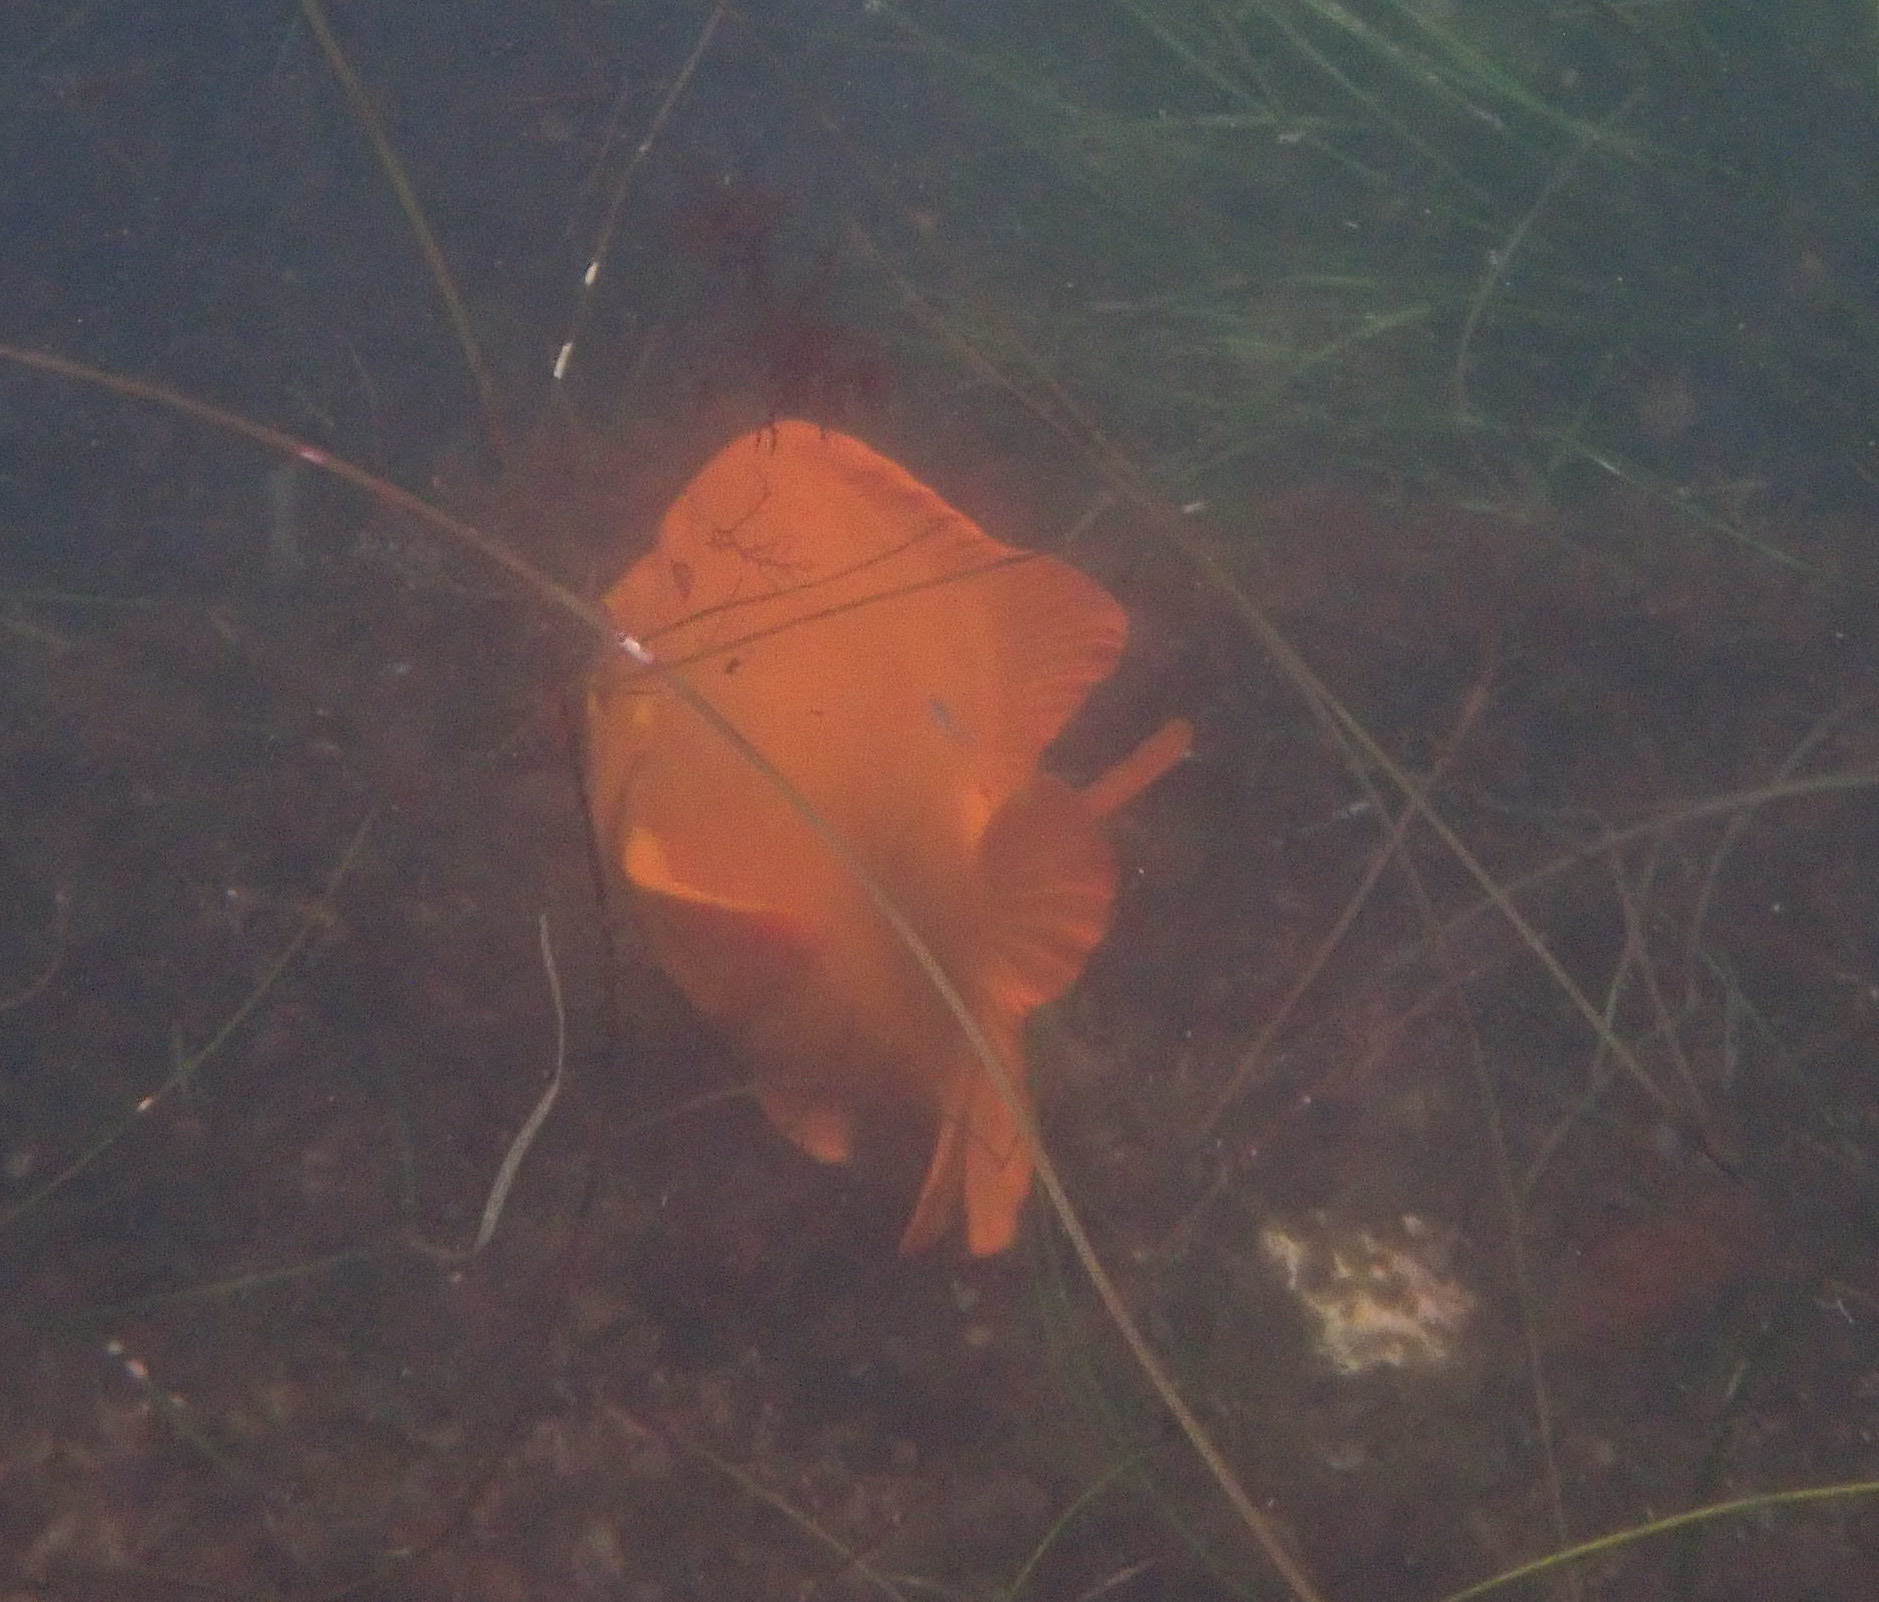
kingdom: Animalia
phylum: Chordata
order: Perciformes
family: Pomacentridae
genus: Hypsypops
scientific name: Hypsypops rubicundus
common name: Garibaldi
